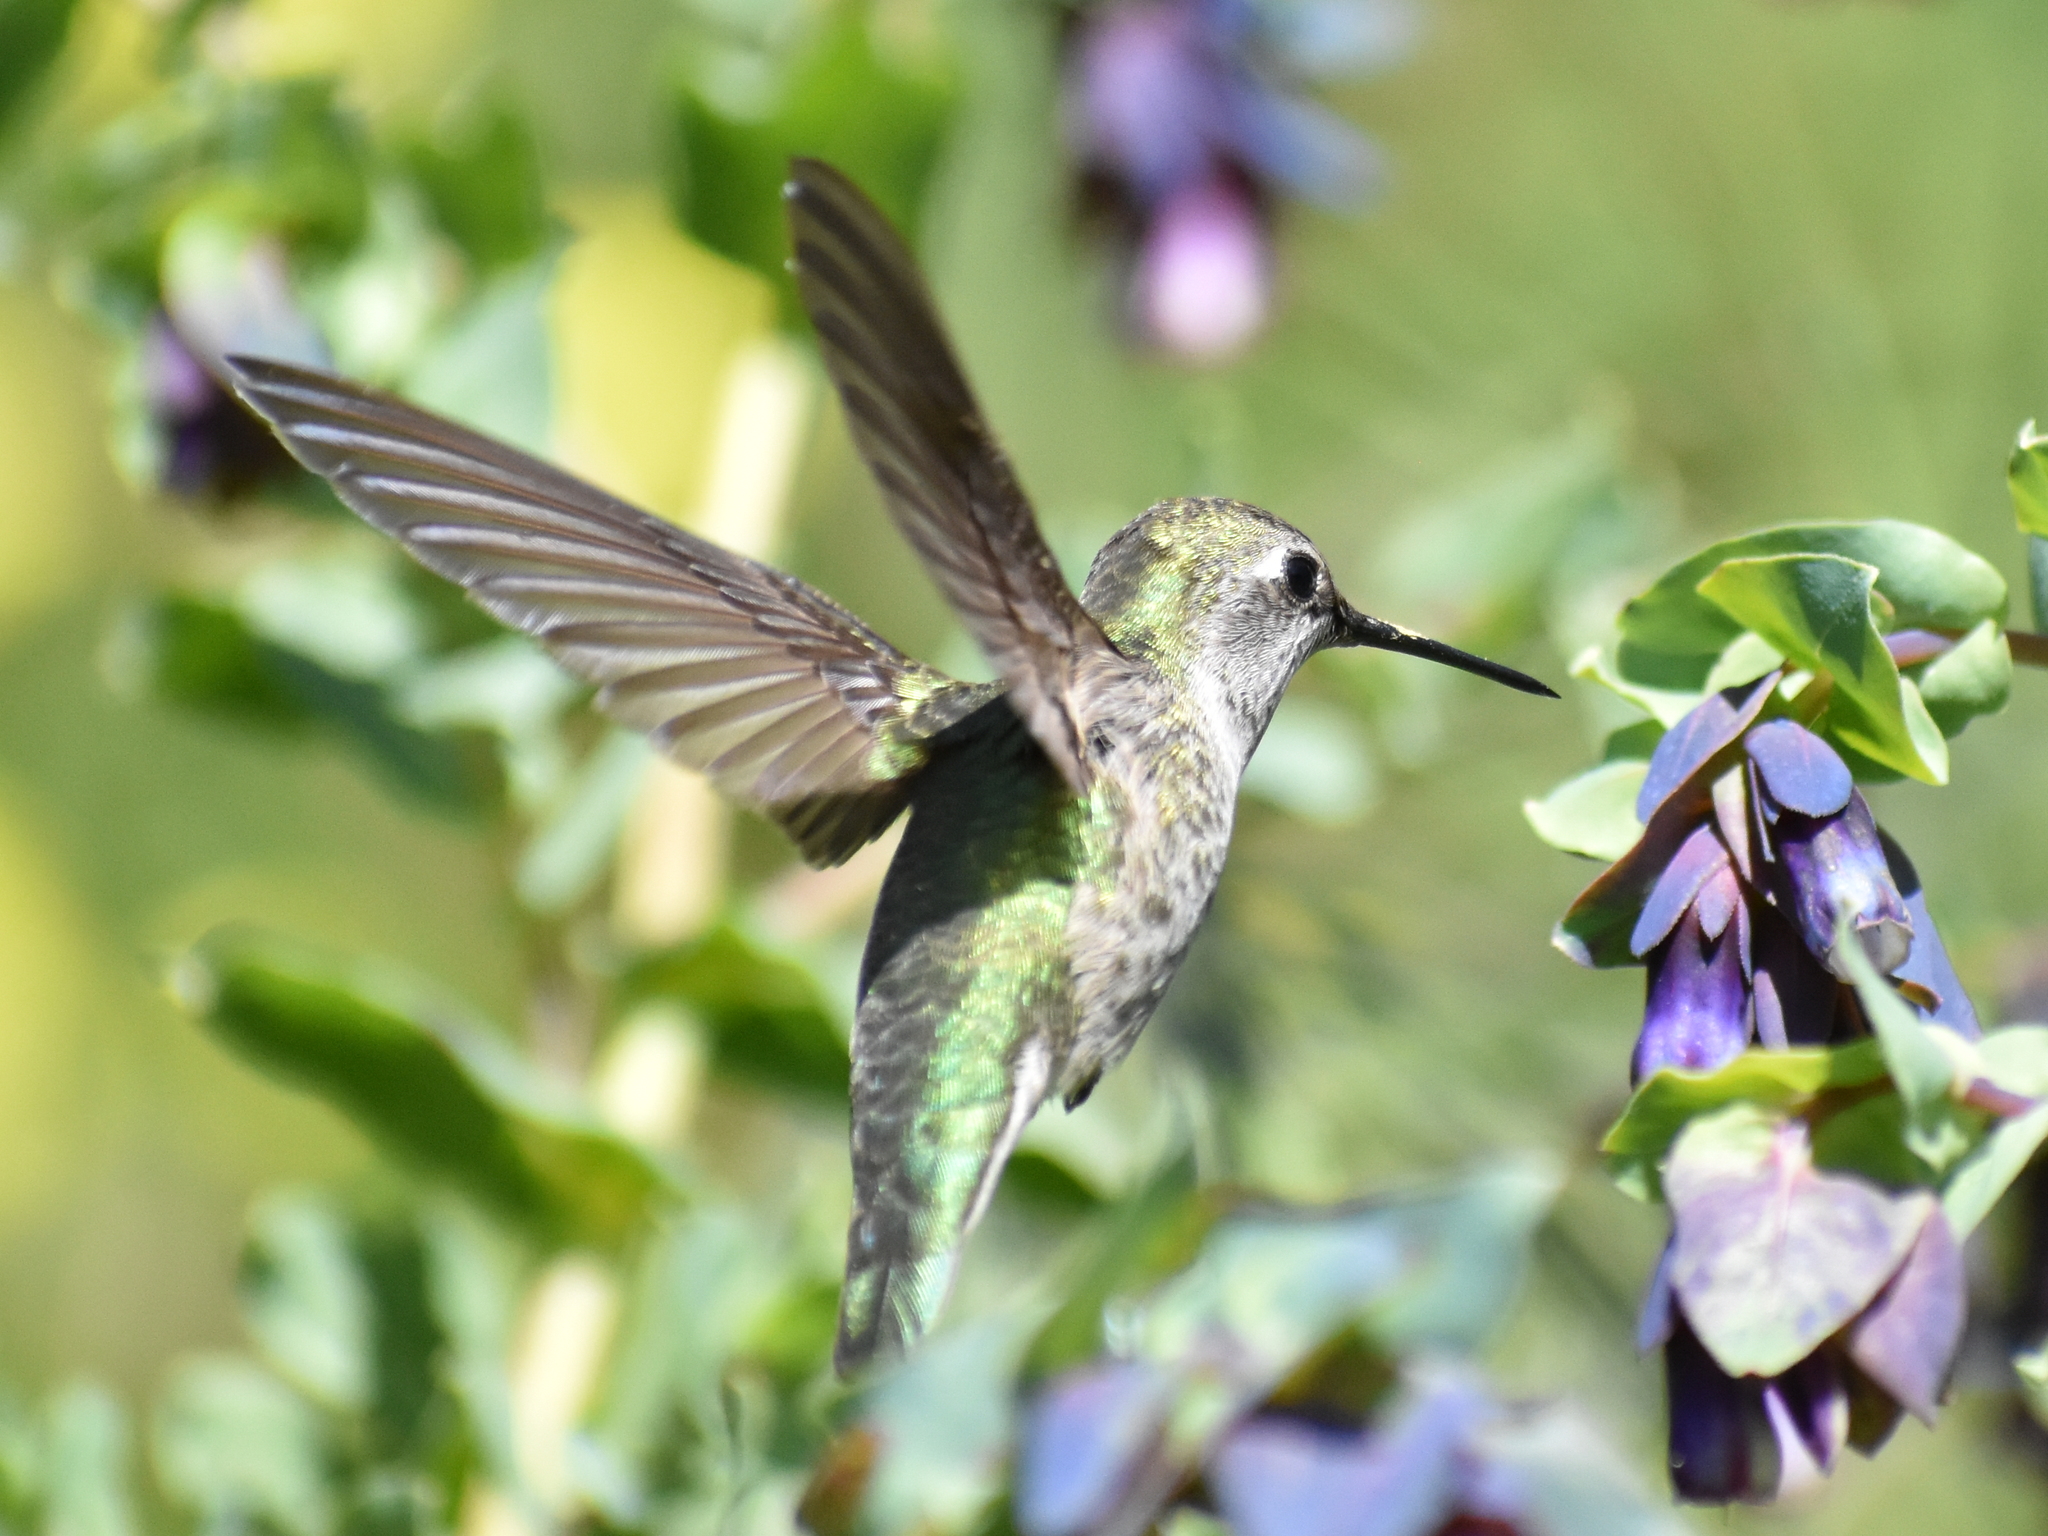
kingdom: Animalia
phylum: Chordata
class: Aves
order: Apodiformes
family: Trochilidae
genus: Calypte
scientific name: Calypte anna
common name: Anna's hummingbird
